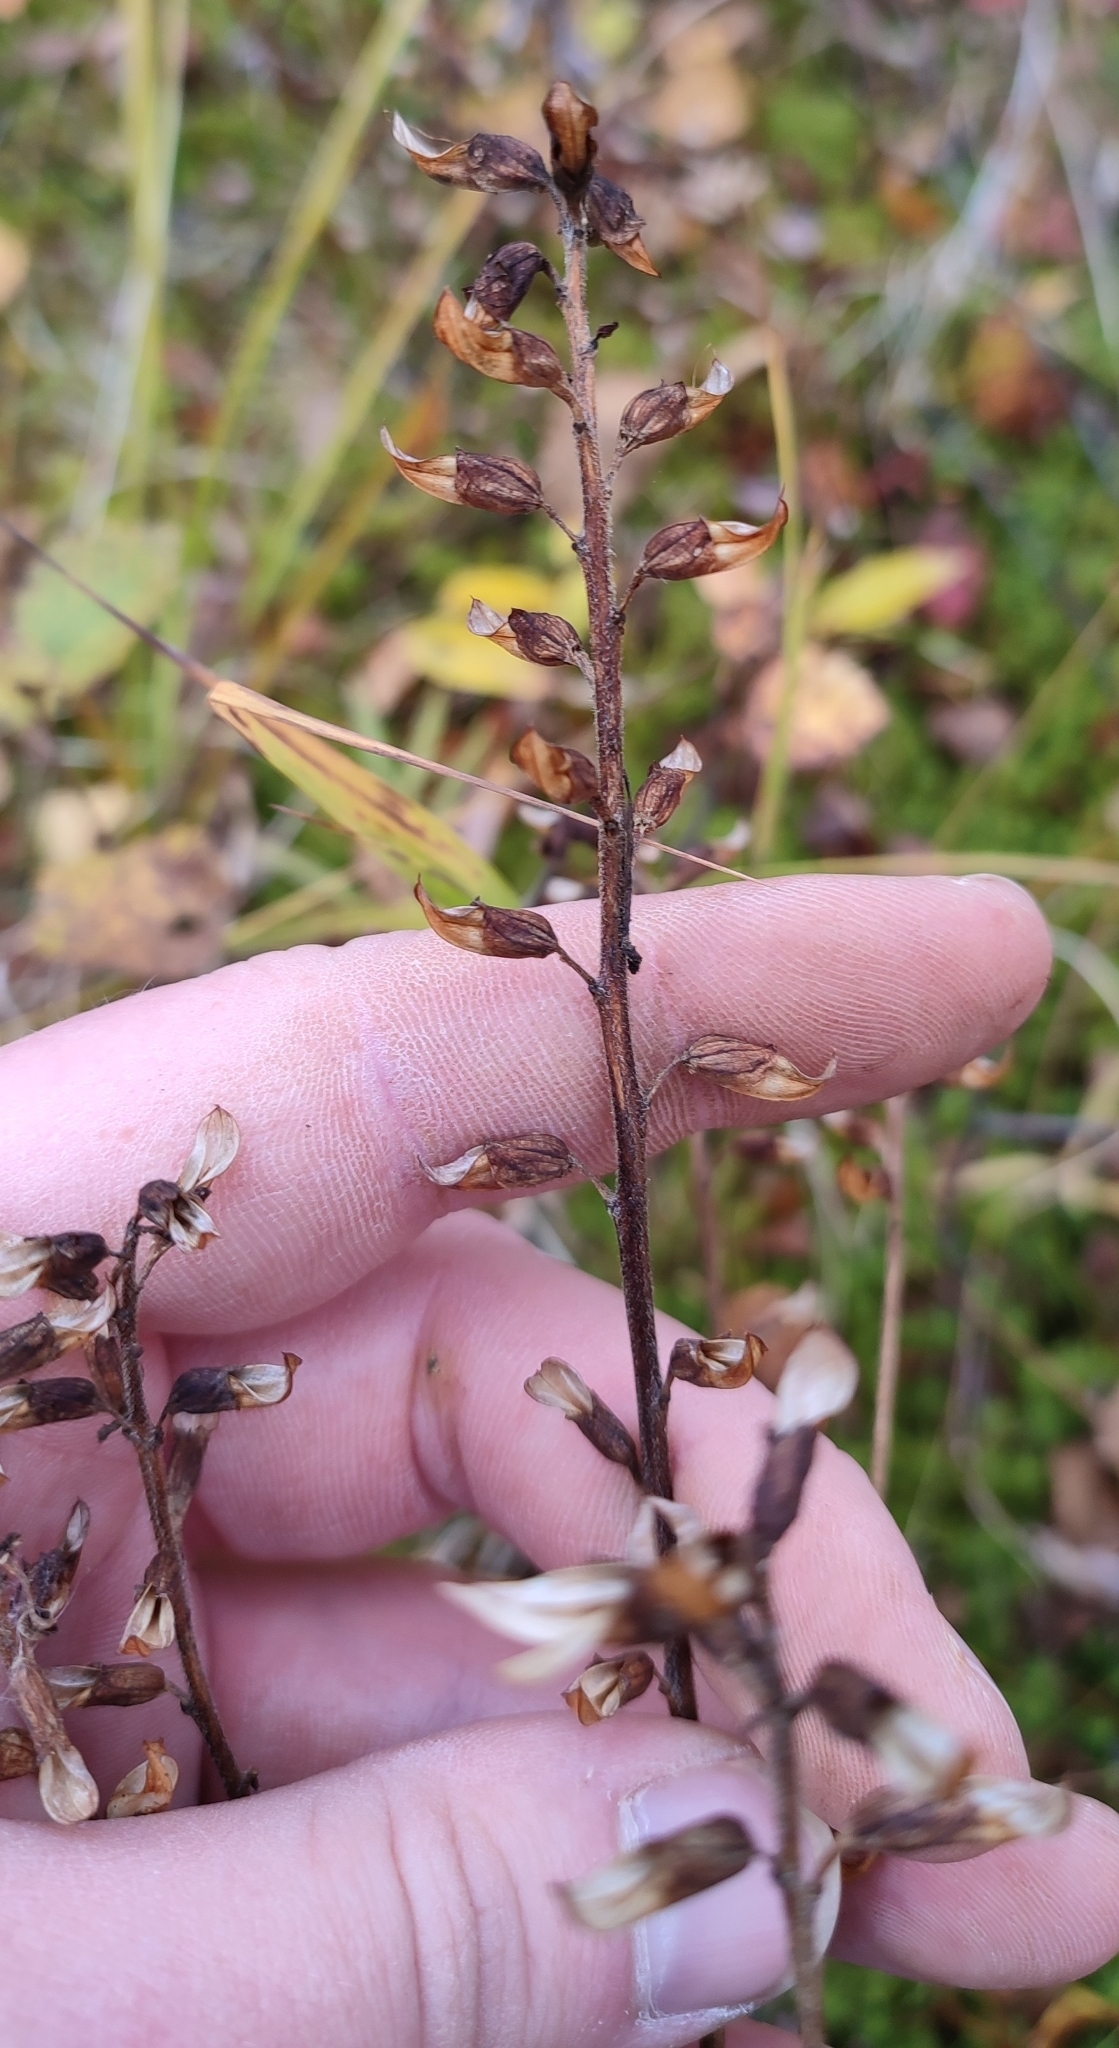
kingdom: Plantae
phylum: Tracheophyta
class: Magnoliopsida
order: Lamiales
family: Orobanchaceae
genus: Pedicularis
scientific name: Pedicularis labradorica
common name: Labrador lousewort
